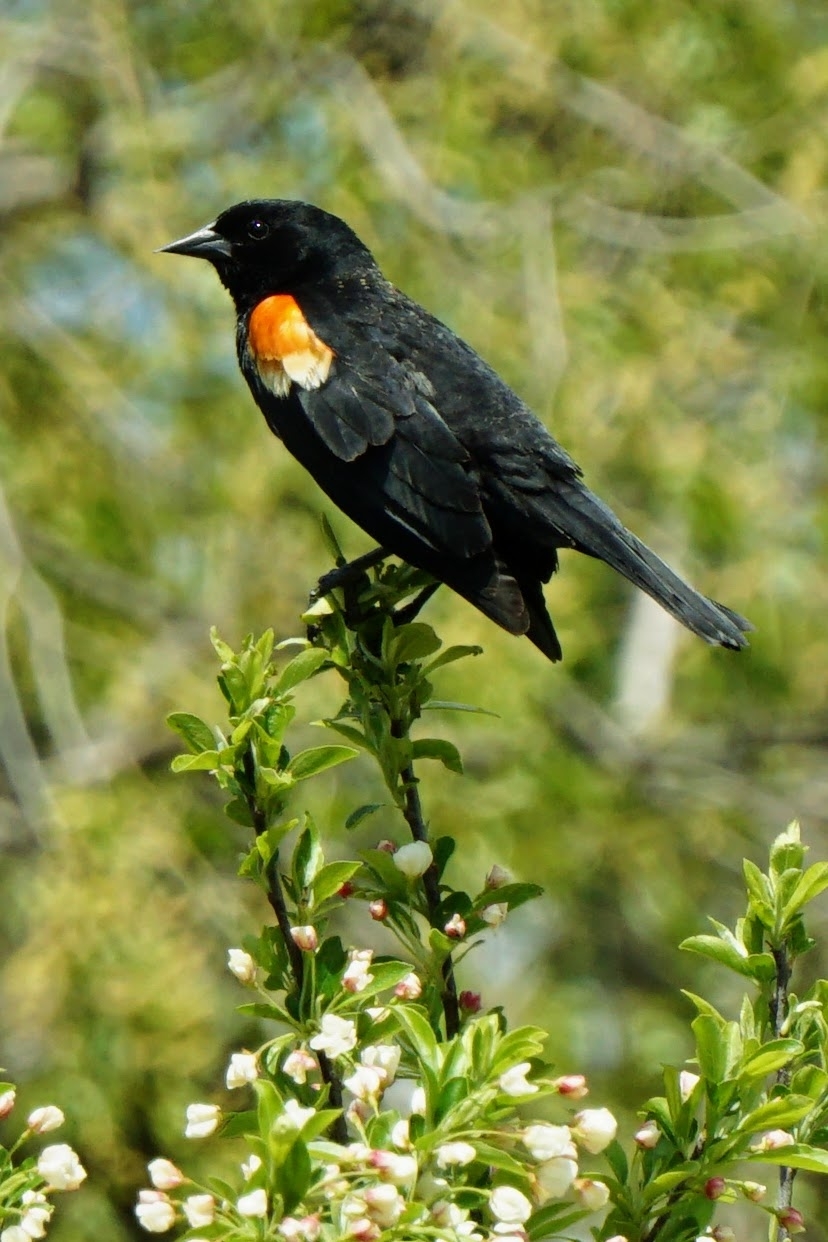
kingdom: Animalia
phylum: Chordata
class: Aves
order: Passeriformes
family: Icteridae
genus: Agelaius
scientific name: Agelaius phoeniceus
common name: Red-winged blackbird
